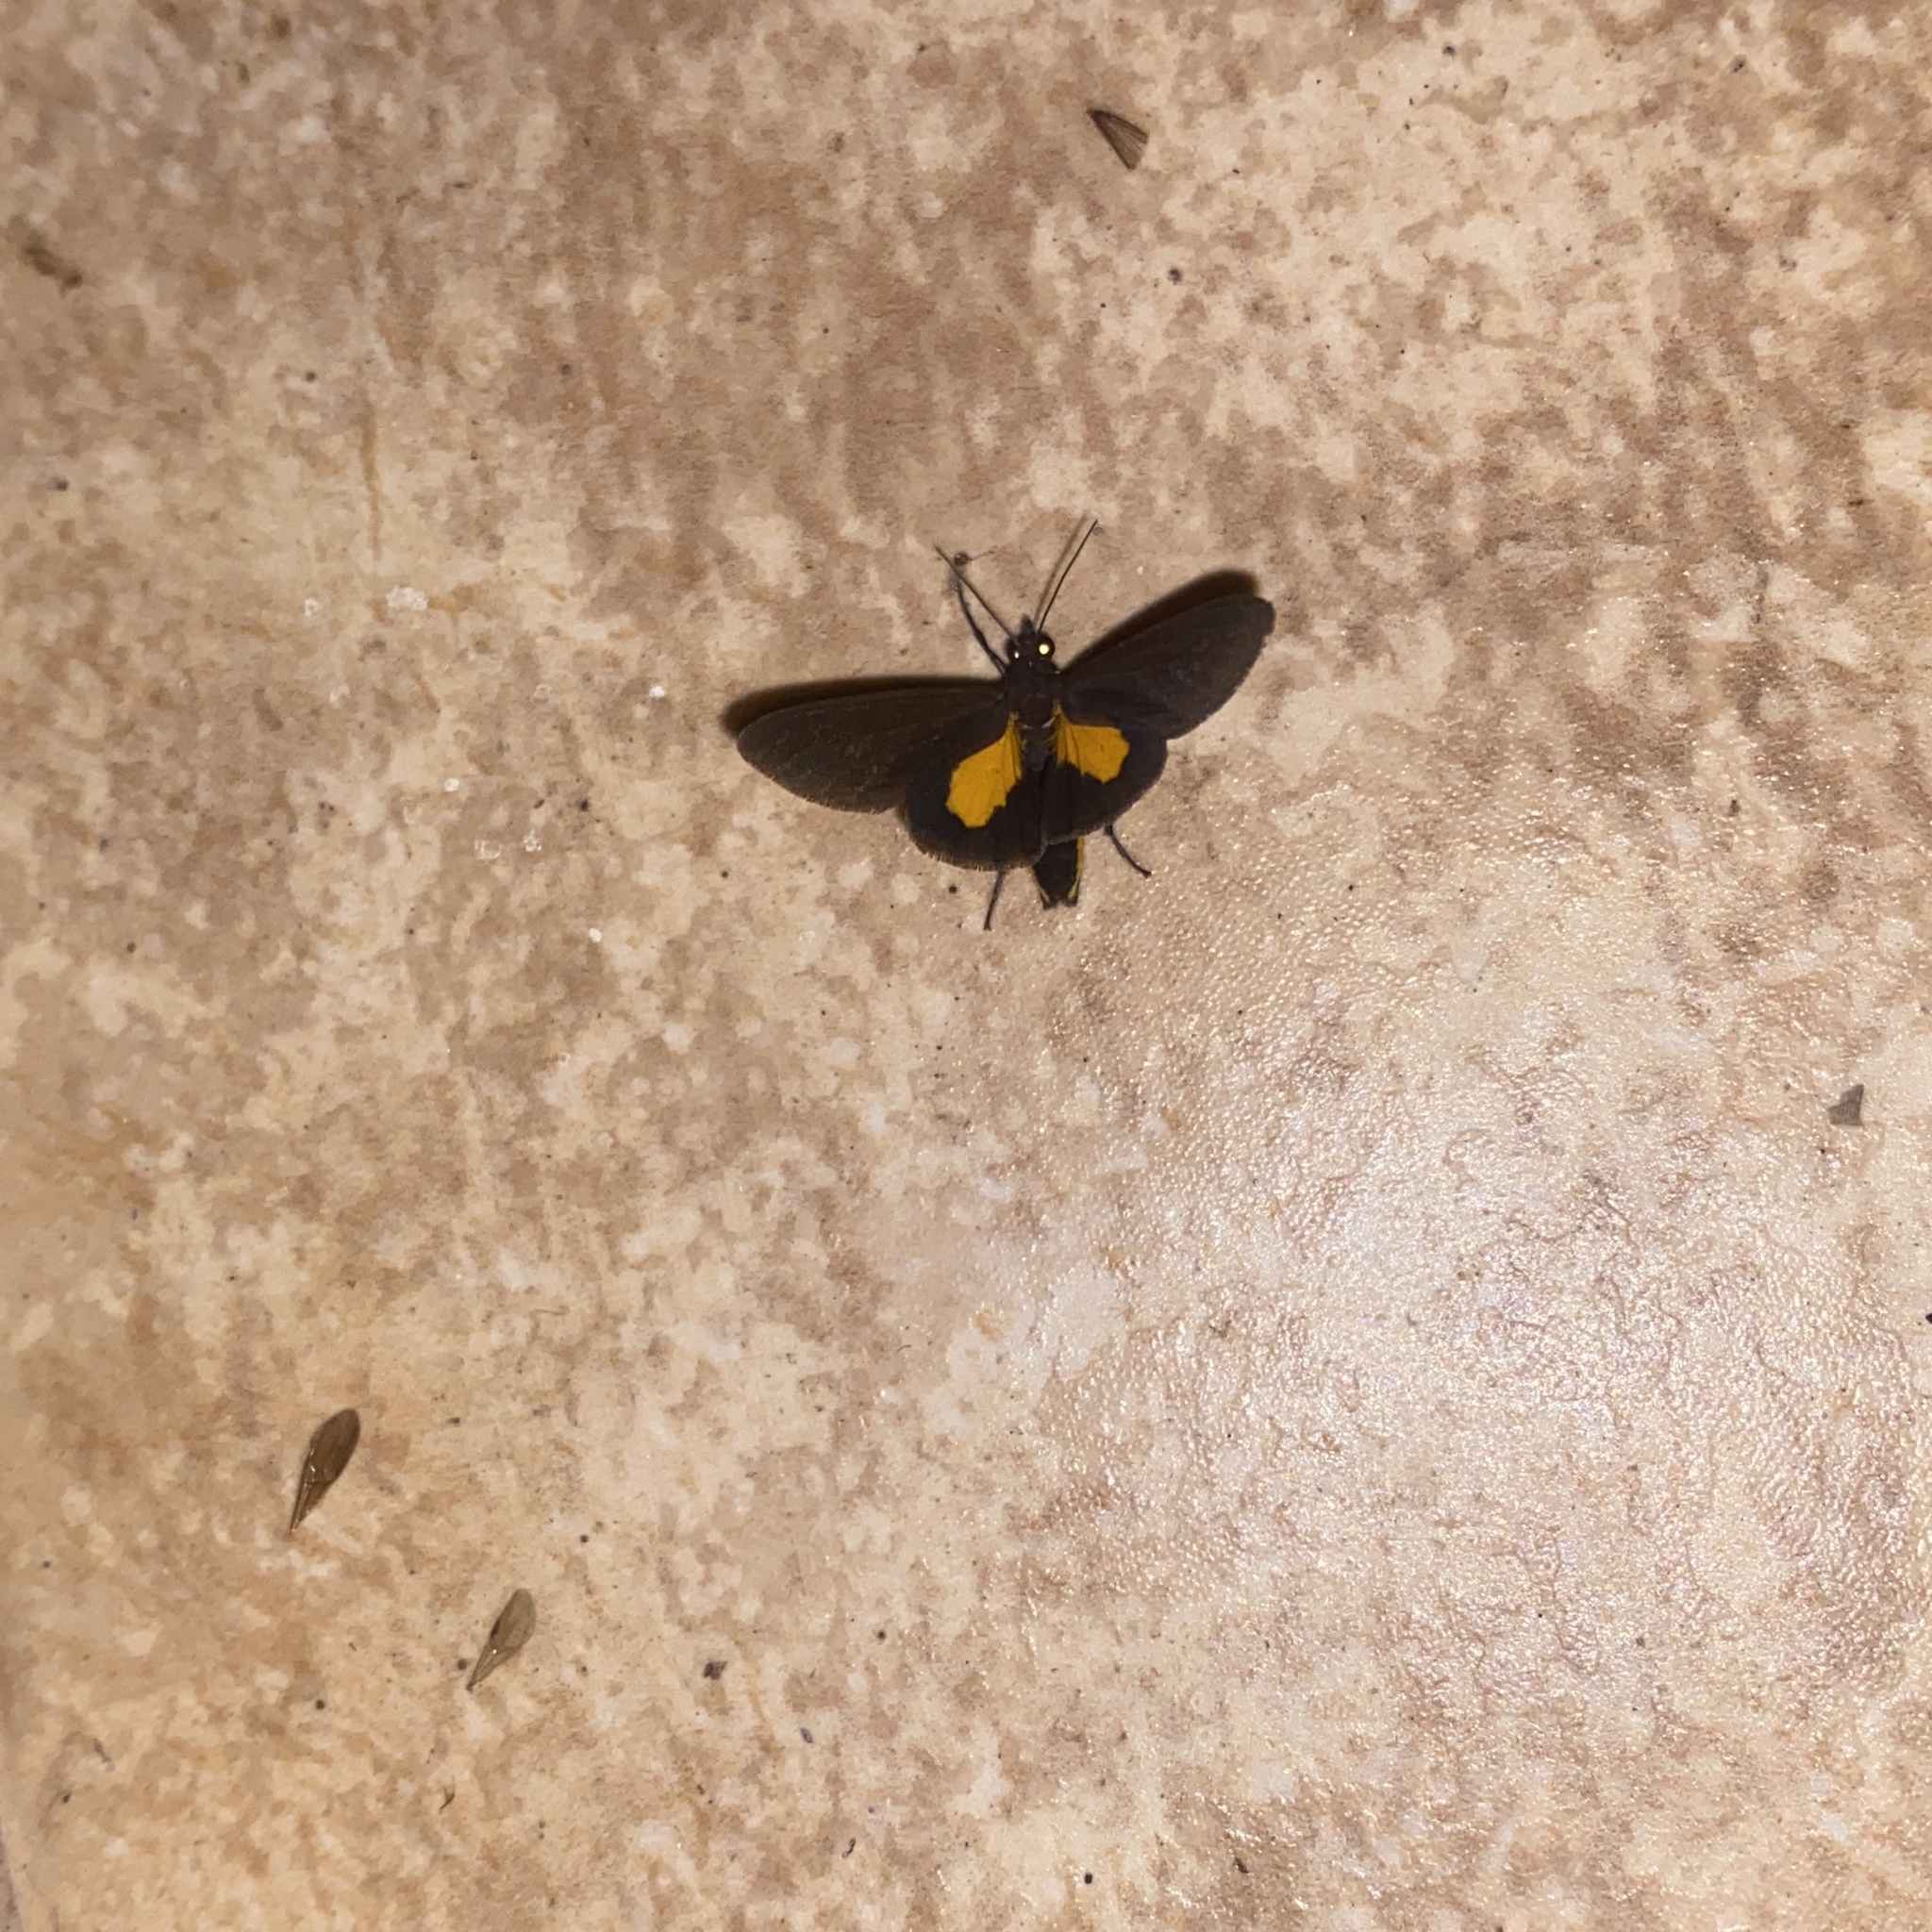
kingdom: Animalia
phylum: Arthropoda
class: Insecta
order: Lepidoptera
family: Erebidae
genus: Virbia
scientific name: Virbia medarda
